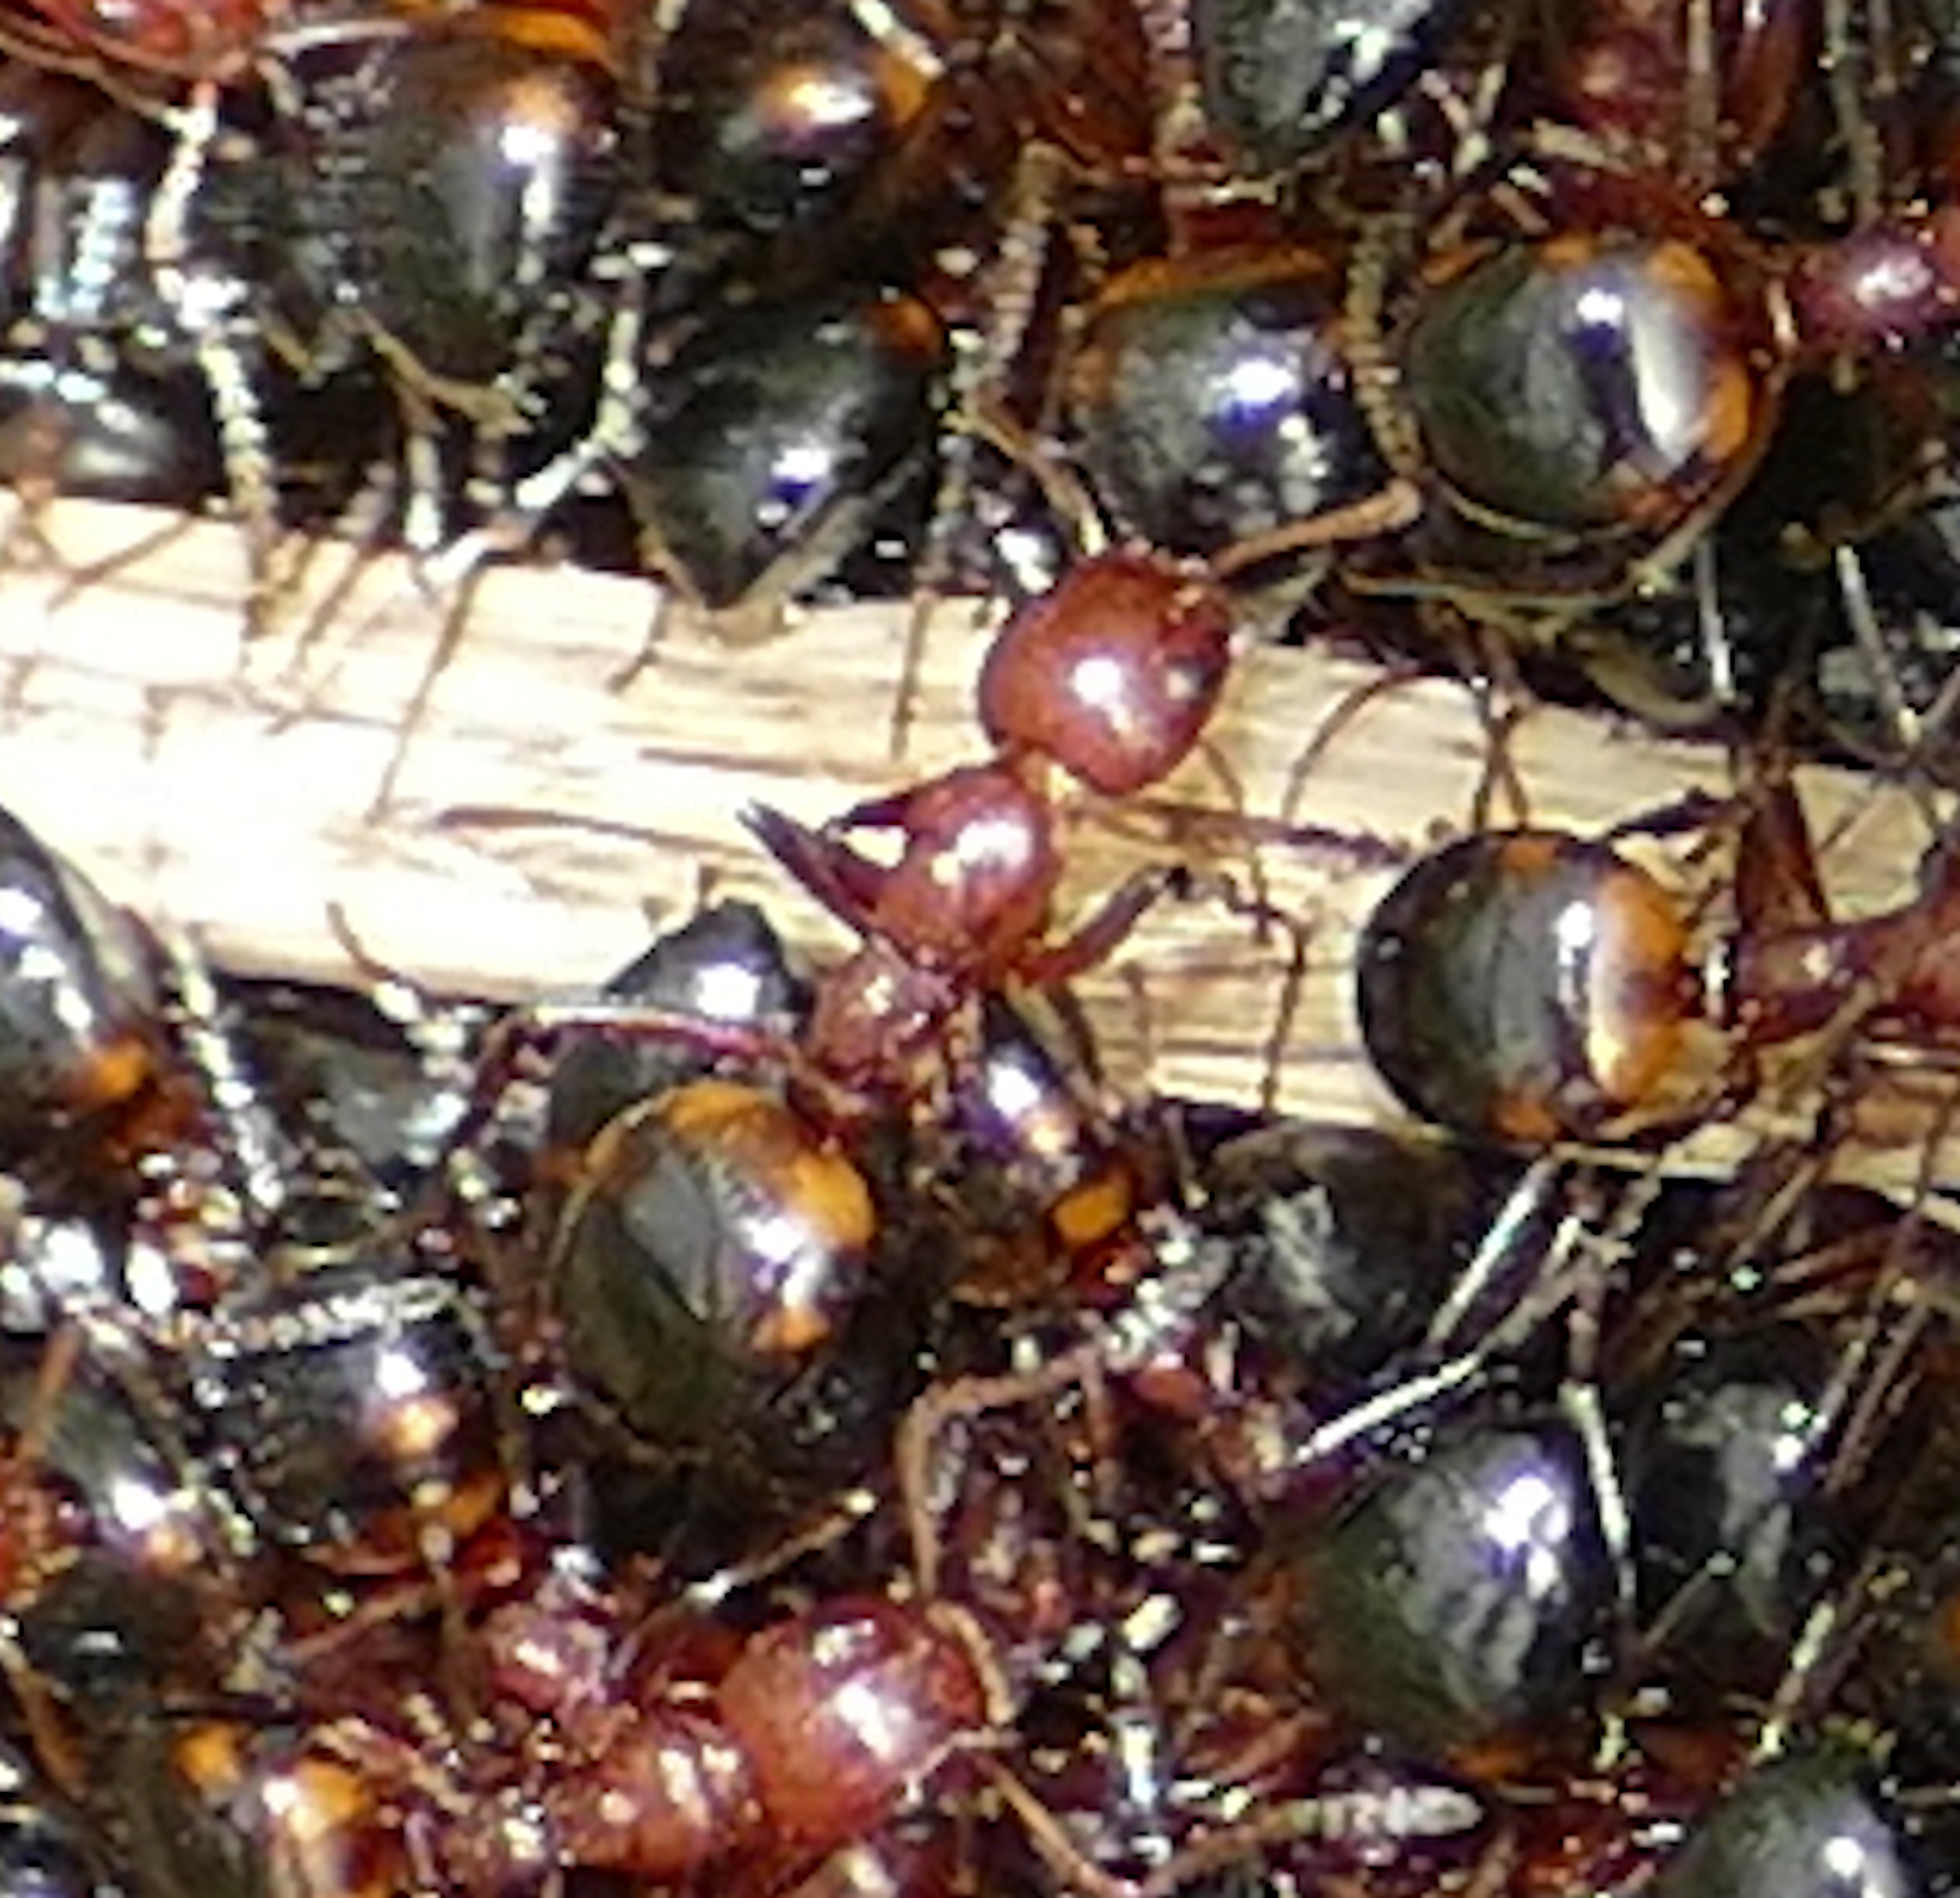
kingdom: Animalia
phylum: Arthropoda
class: Insecta
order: Hymenoptera
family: Formicidae
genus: Dolichoderus
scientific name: Dolichoderus mariae
